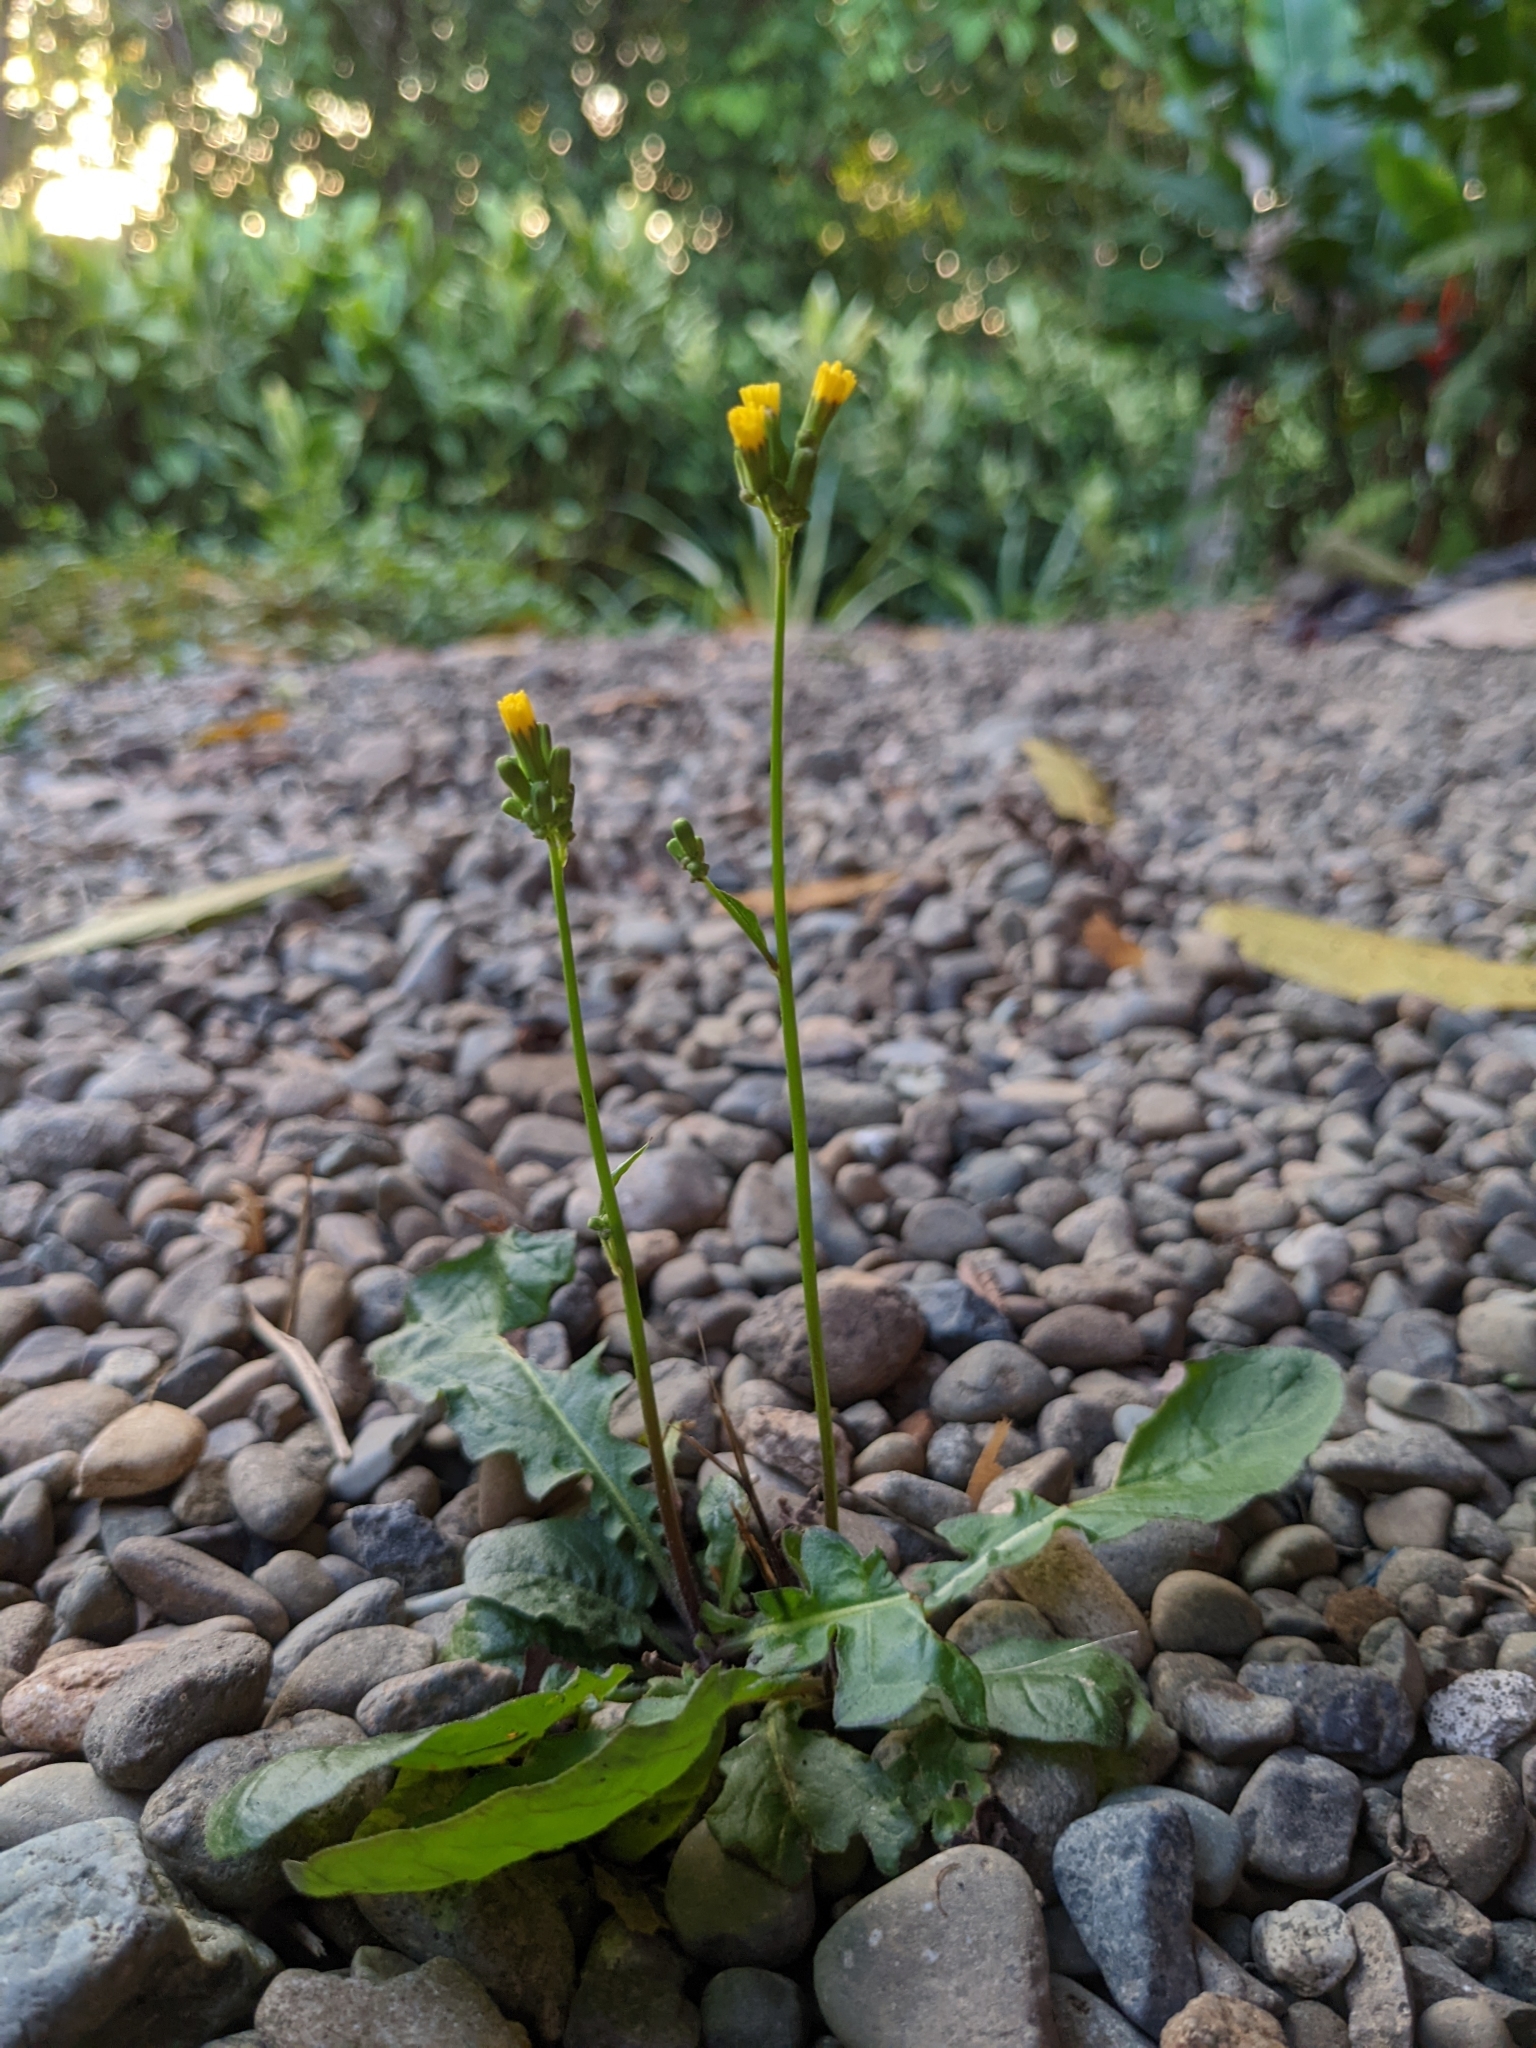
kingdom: Plantae
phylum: Tracheophyta
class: Magnoliopsida
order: Asterales
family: Asteraceae
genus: Youngia
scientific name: Youngia japonica
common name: Oriental false hawksbeard
